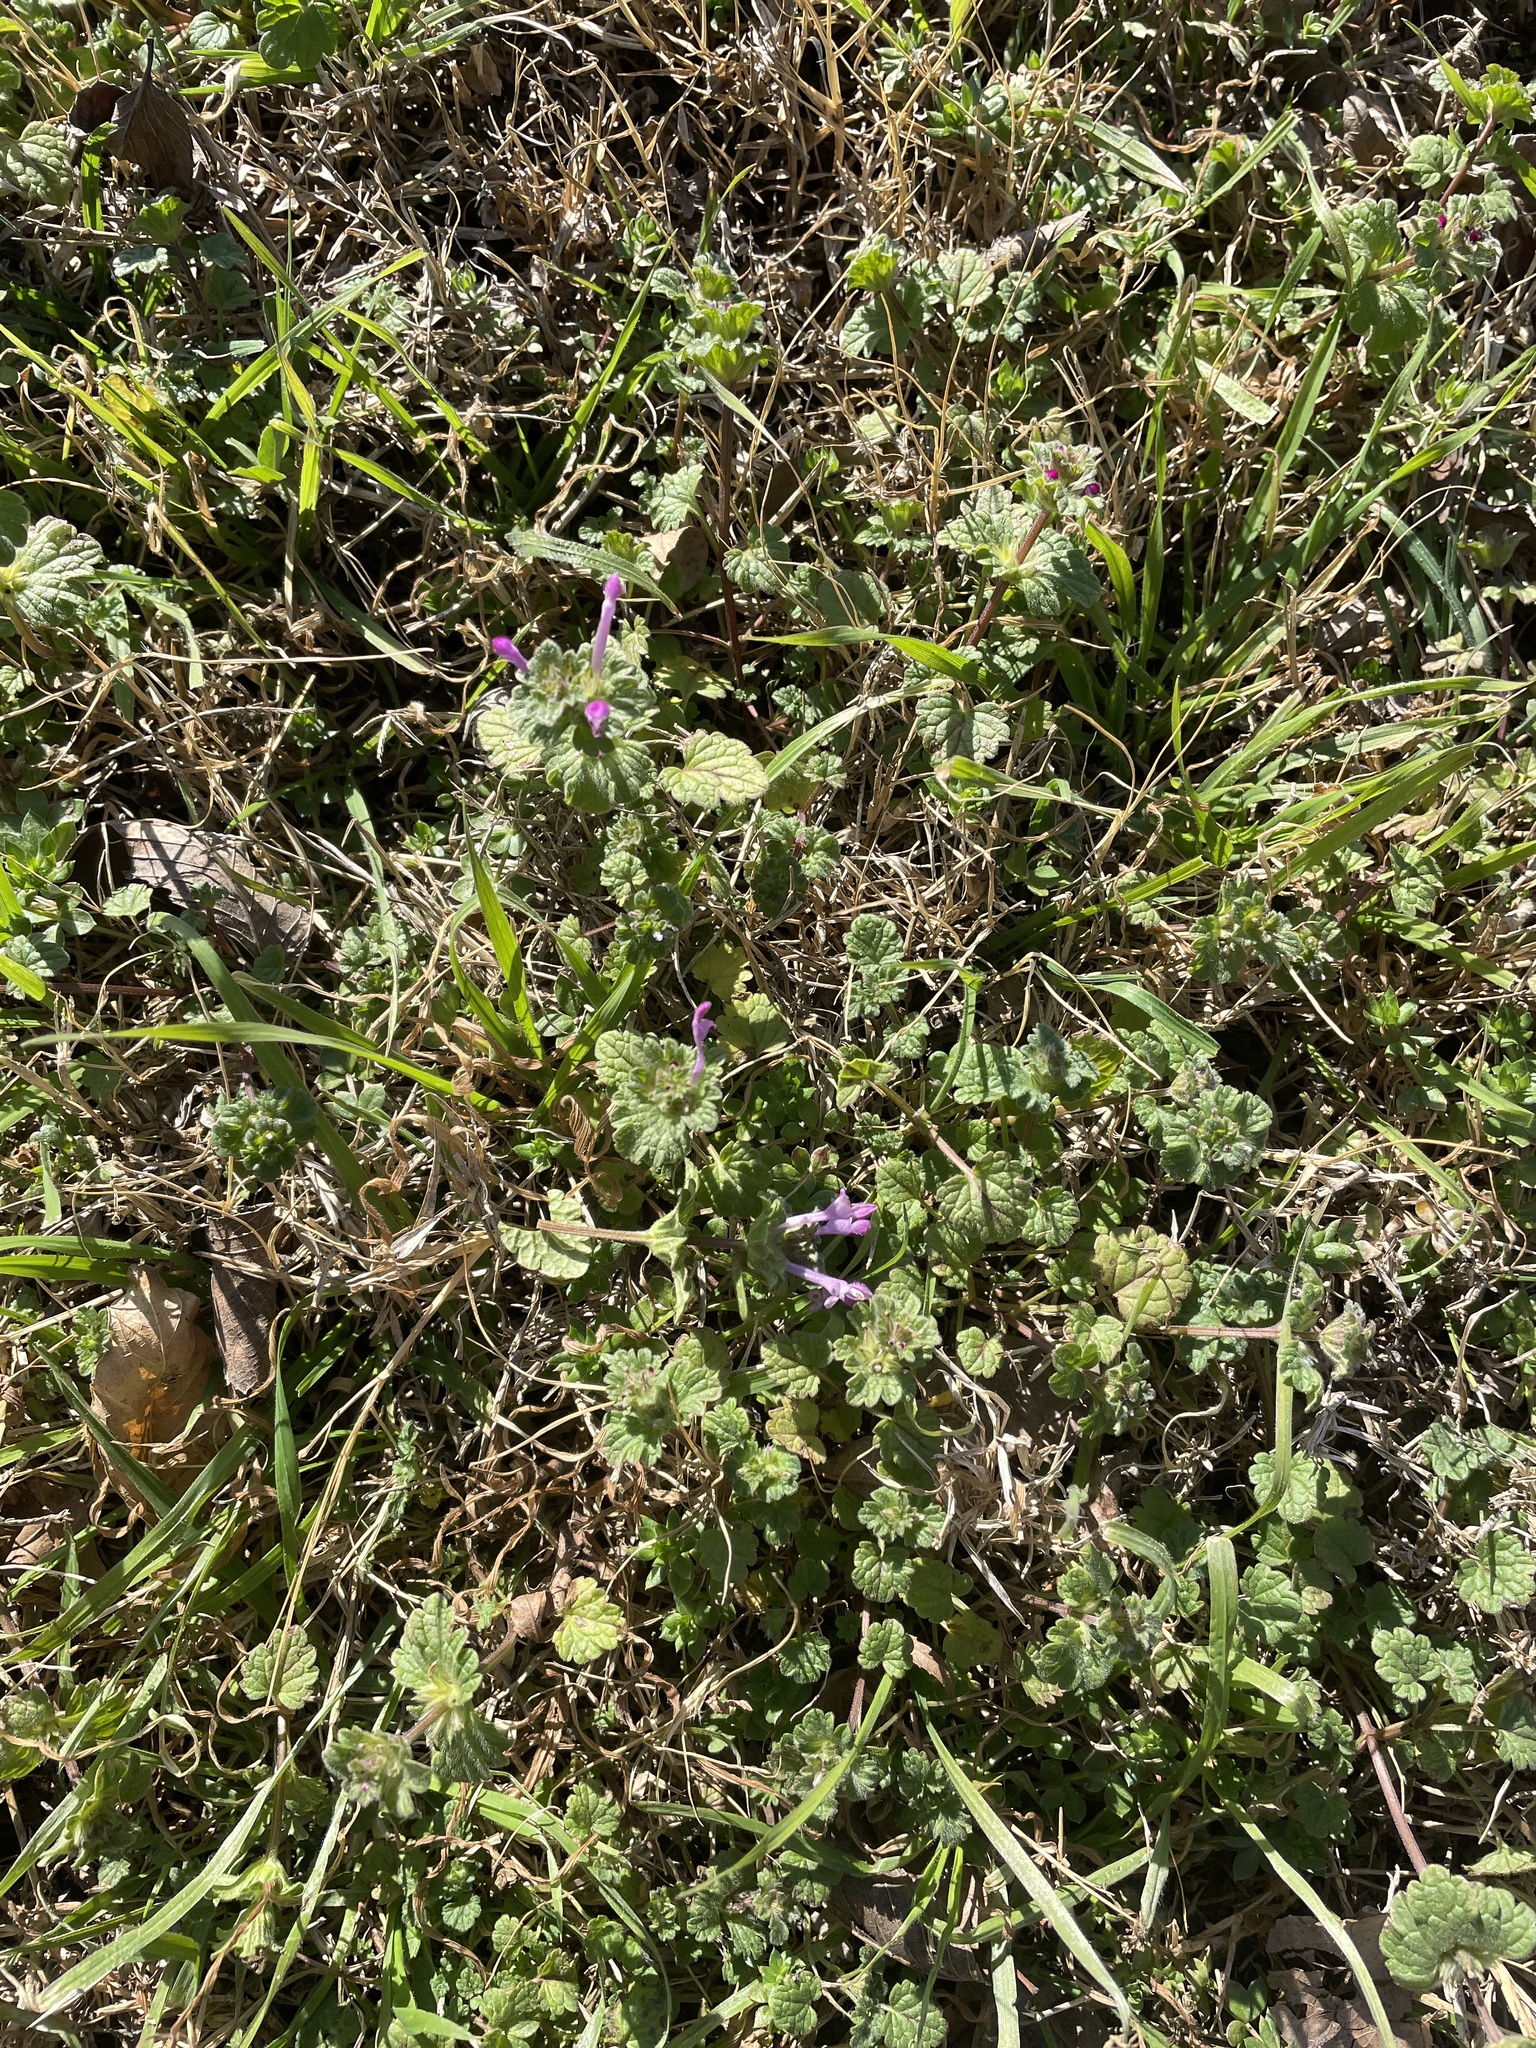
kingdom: Plantae
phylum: Tracheophyta
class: Magnoliopsida
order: Lamiales
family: Lamiaceae
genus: Lamium
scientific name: Lamium amplexicaule
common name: Henbit dead-nettle
